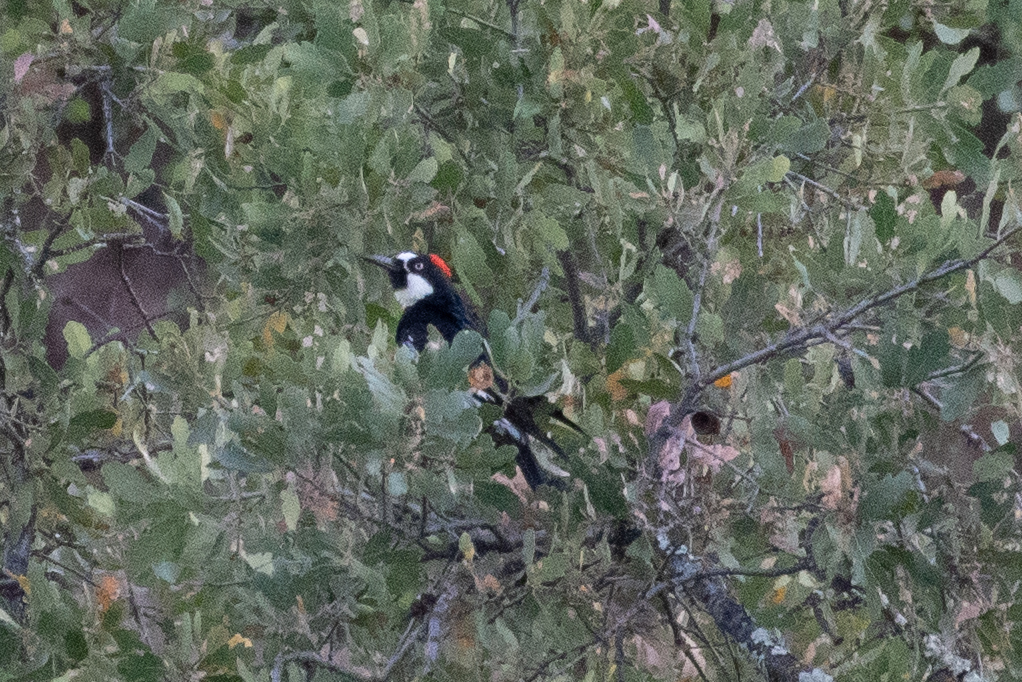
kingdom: Animalia
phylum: Chordata
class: Aves
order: Piciformes
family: Picidae
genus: Melanerpes
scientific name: Melanerpes formicivorus
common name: Acorn woodpecker
